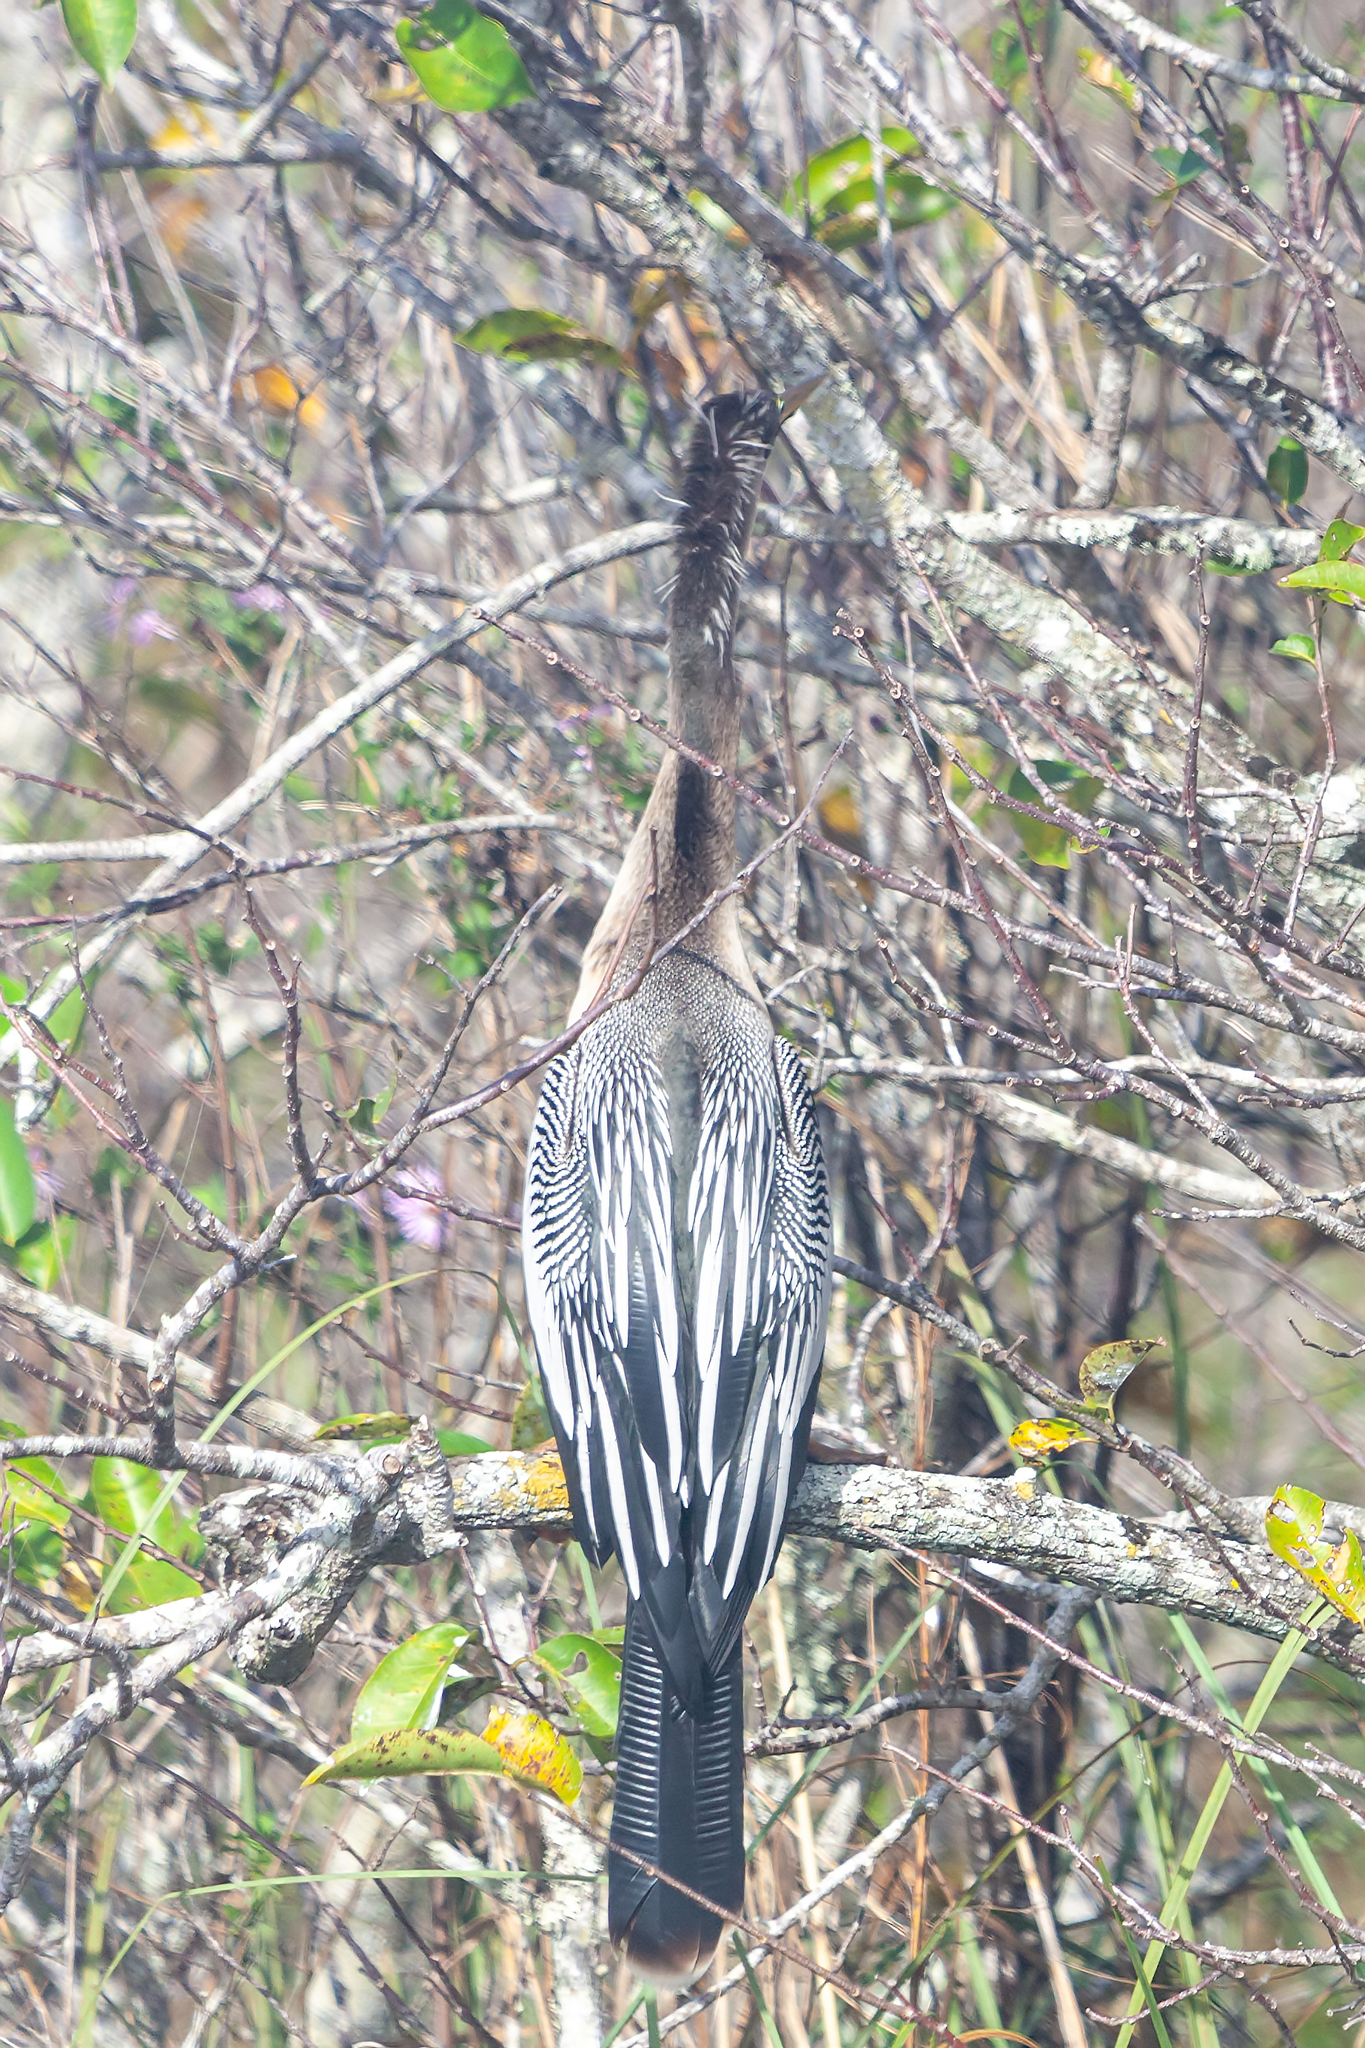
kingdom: Animalia
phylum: Chordata
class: Aves
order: Suliformes
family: Anhingidae
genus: Anhinga
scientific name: Anhinga anhinga
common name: Anhinga
